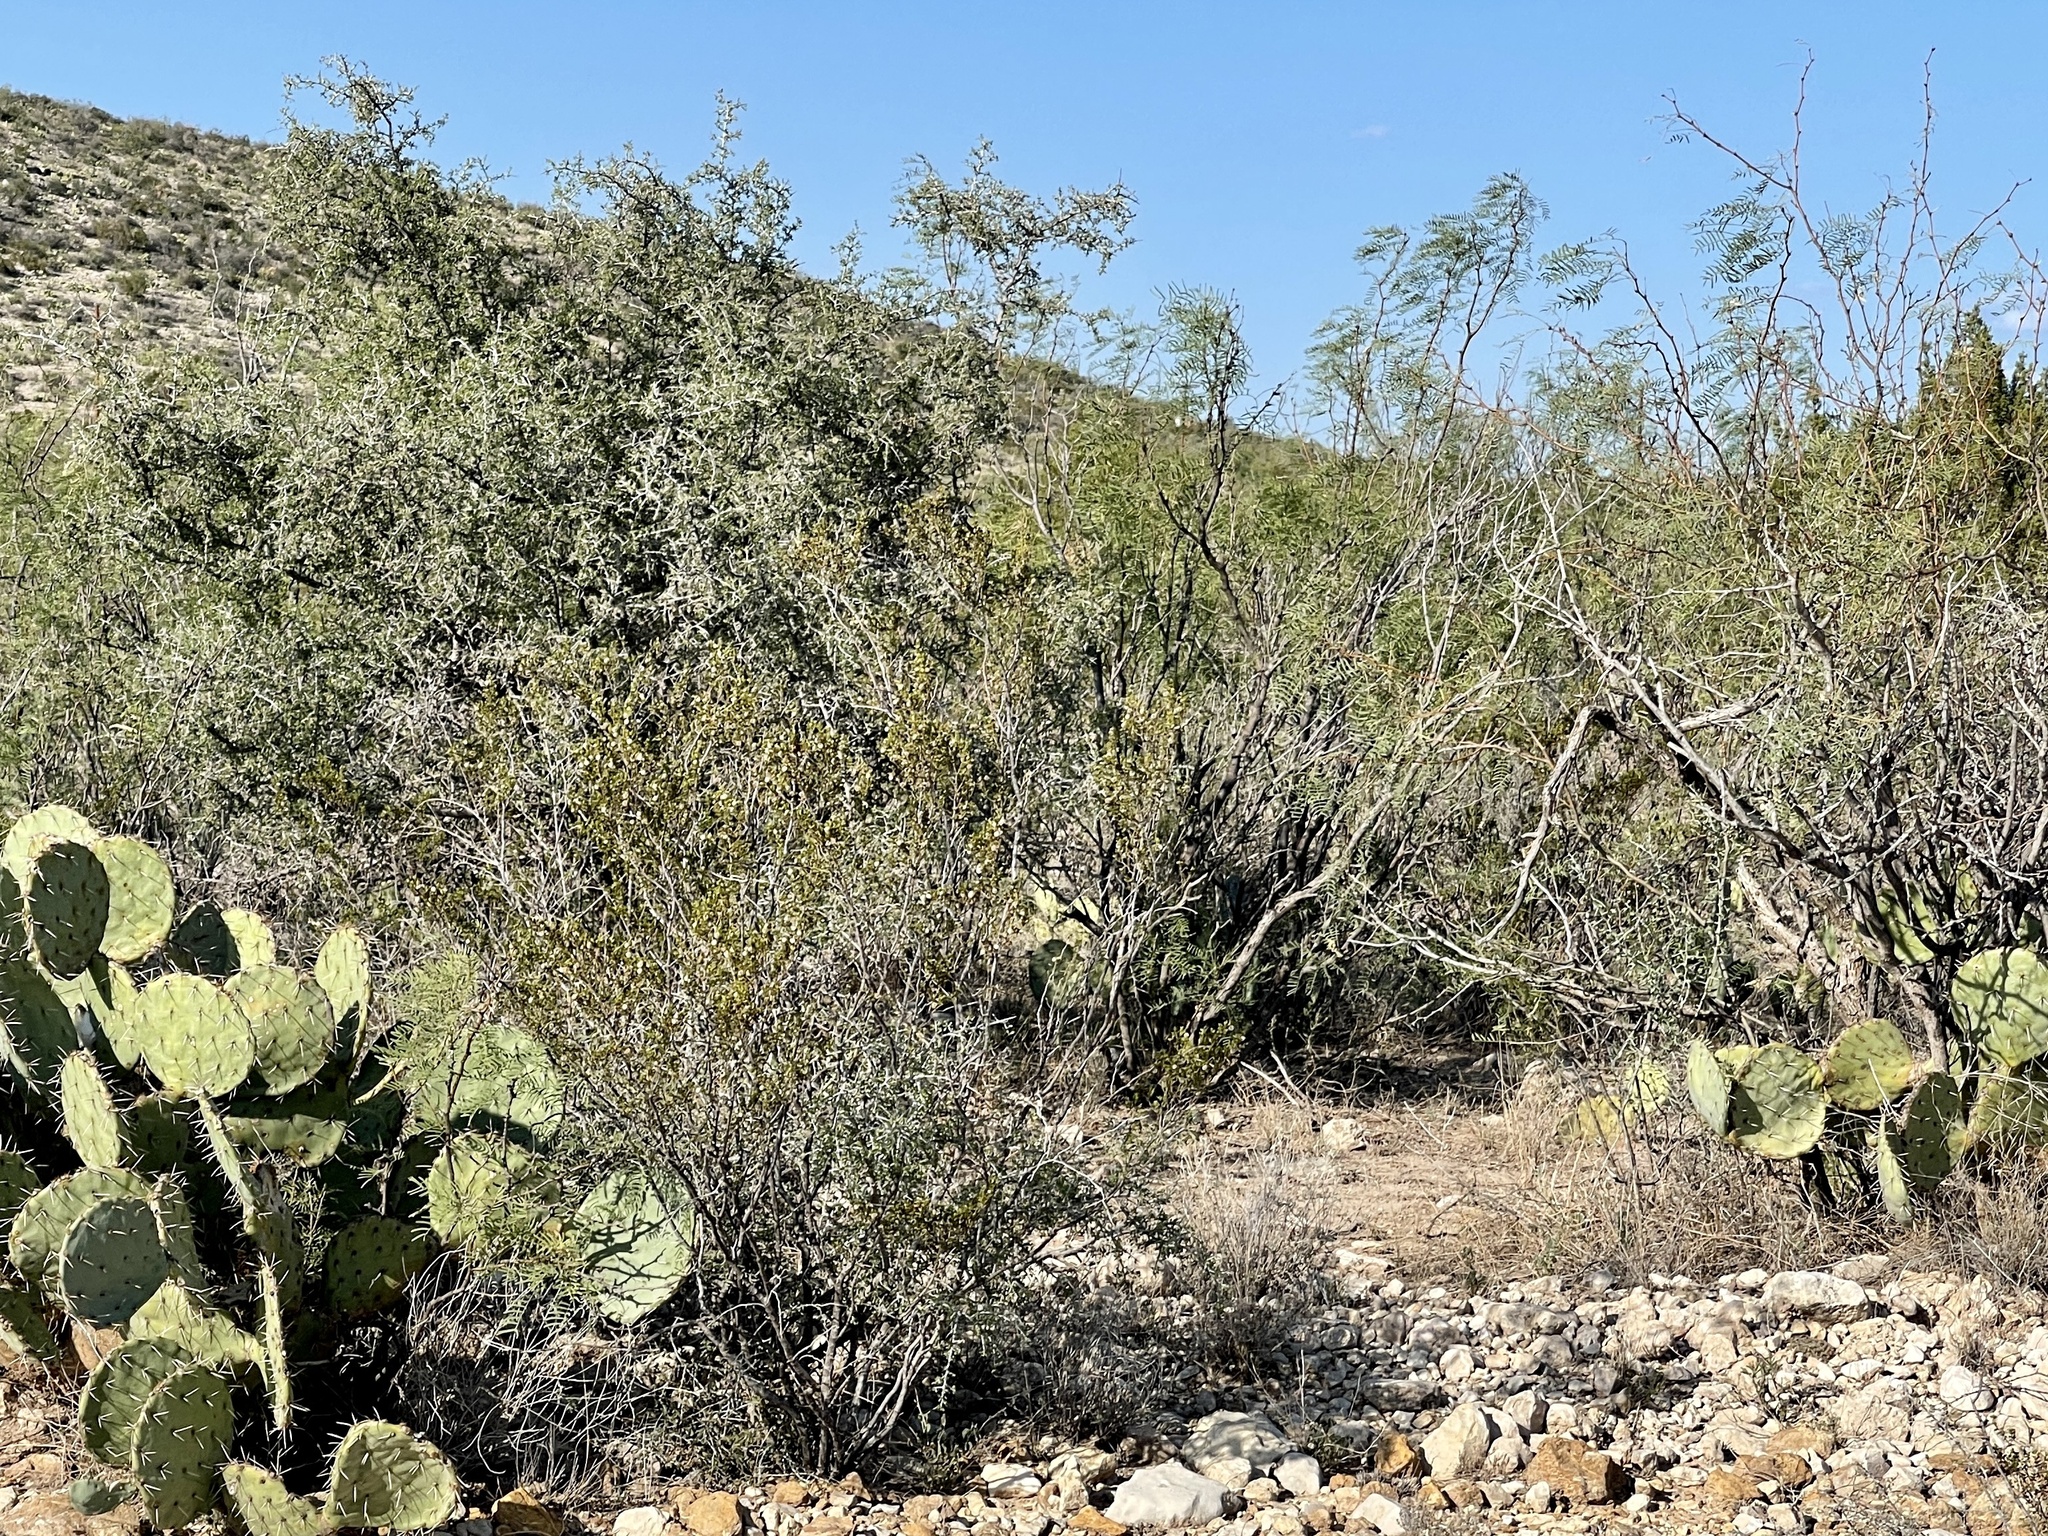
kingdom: Plantae
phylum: Tracheophyta
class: Magnoliopsida
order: Zygophyllales
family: Zygophyllaceae
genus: Larrea
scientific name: Larrea tridentata
